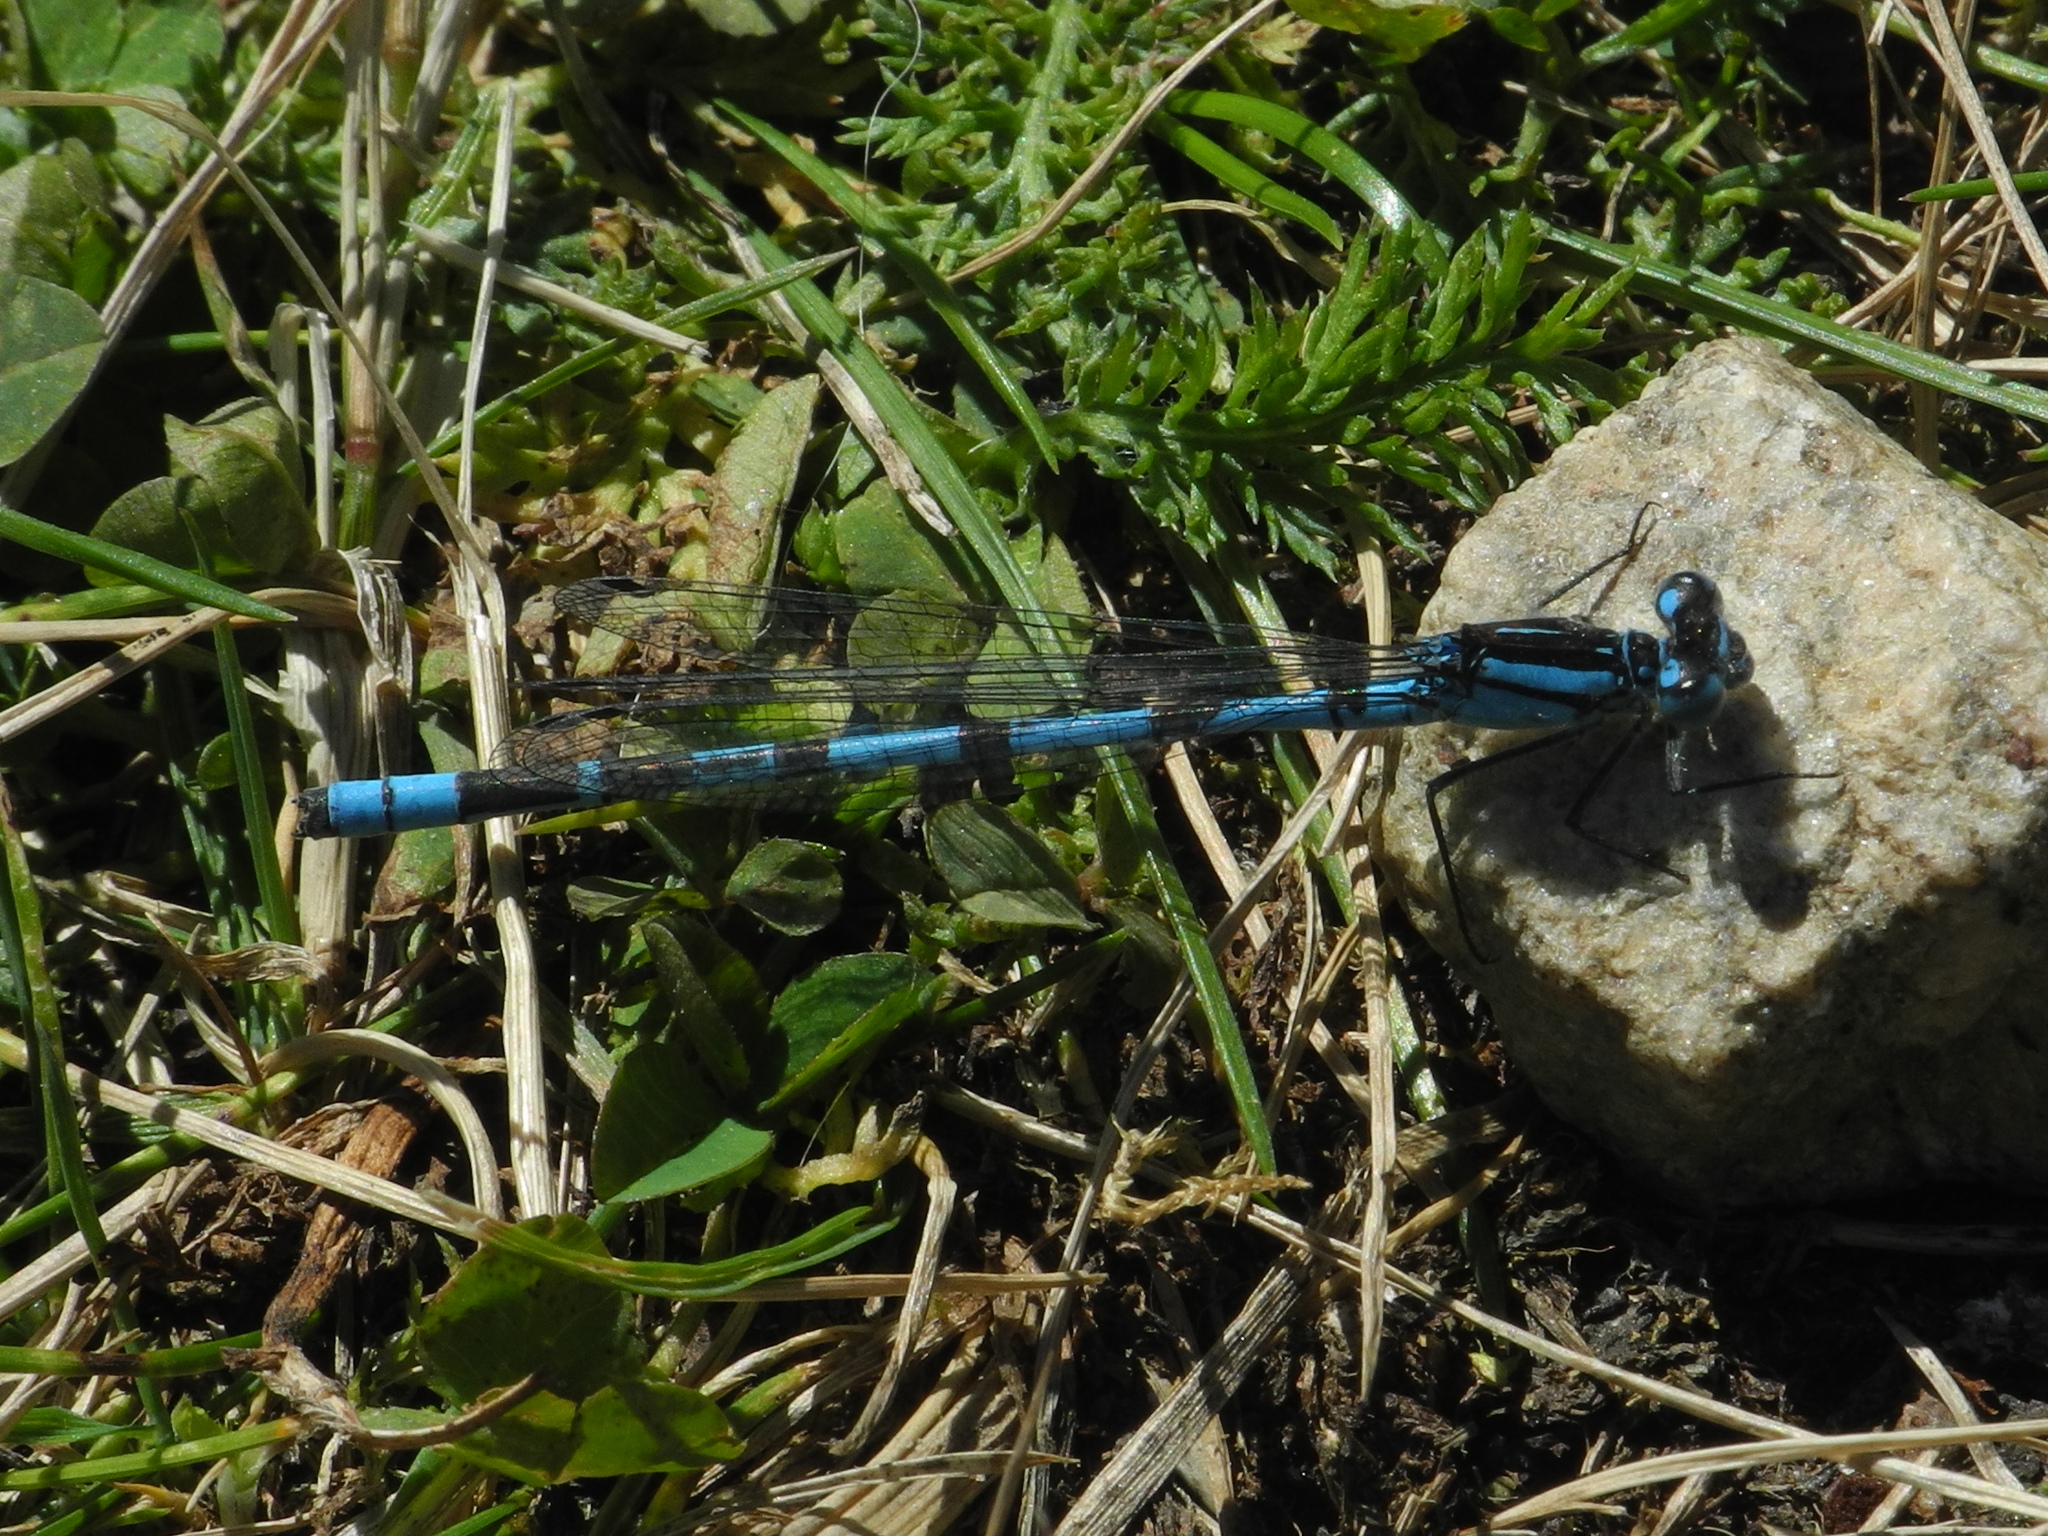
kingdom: Animalia
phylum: Arthropoda
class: Insecta
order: Odonata
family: Coenagrionidae
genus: Enallagma
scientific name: Enallagma cyathigerum
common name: Common blue damselfly
